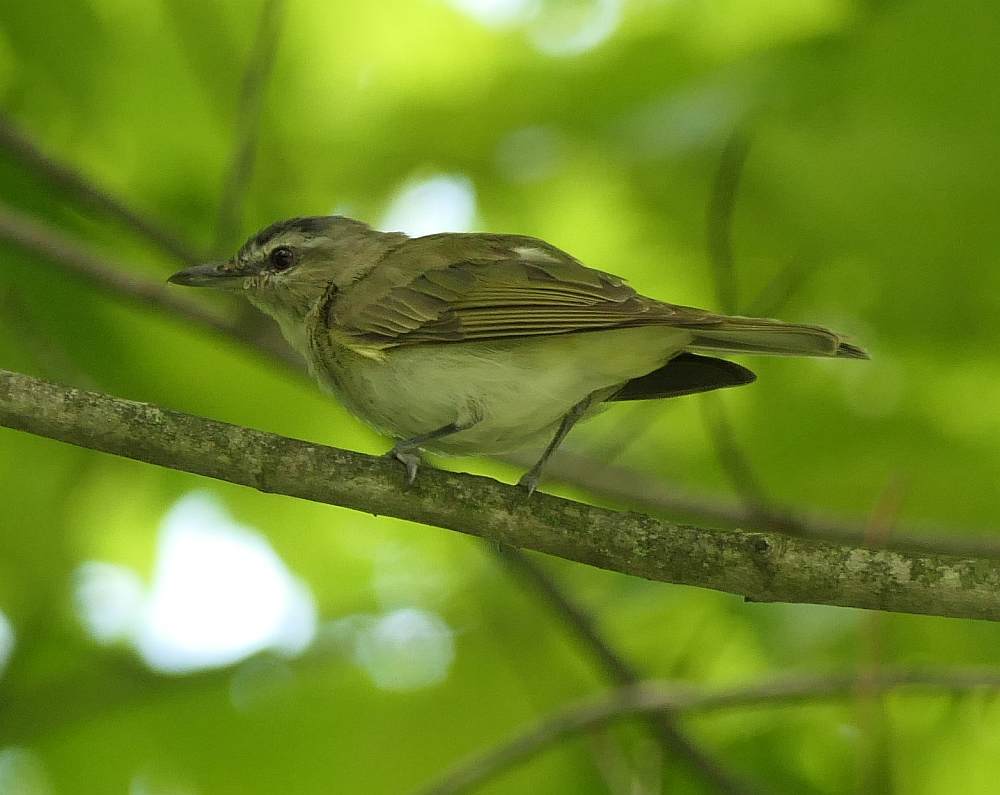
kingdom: Animalia
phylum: Chordata
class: Aves
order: Passeriformes
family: Vireonidae
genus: Vireo
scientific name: Vireo olivaceus
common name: Red-eyed vireo
